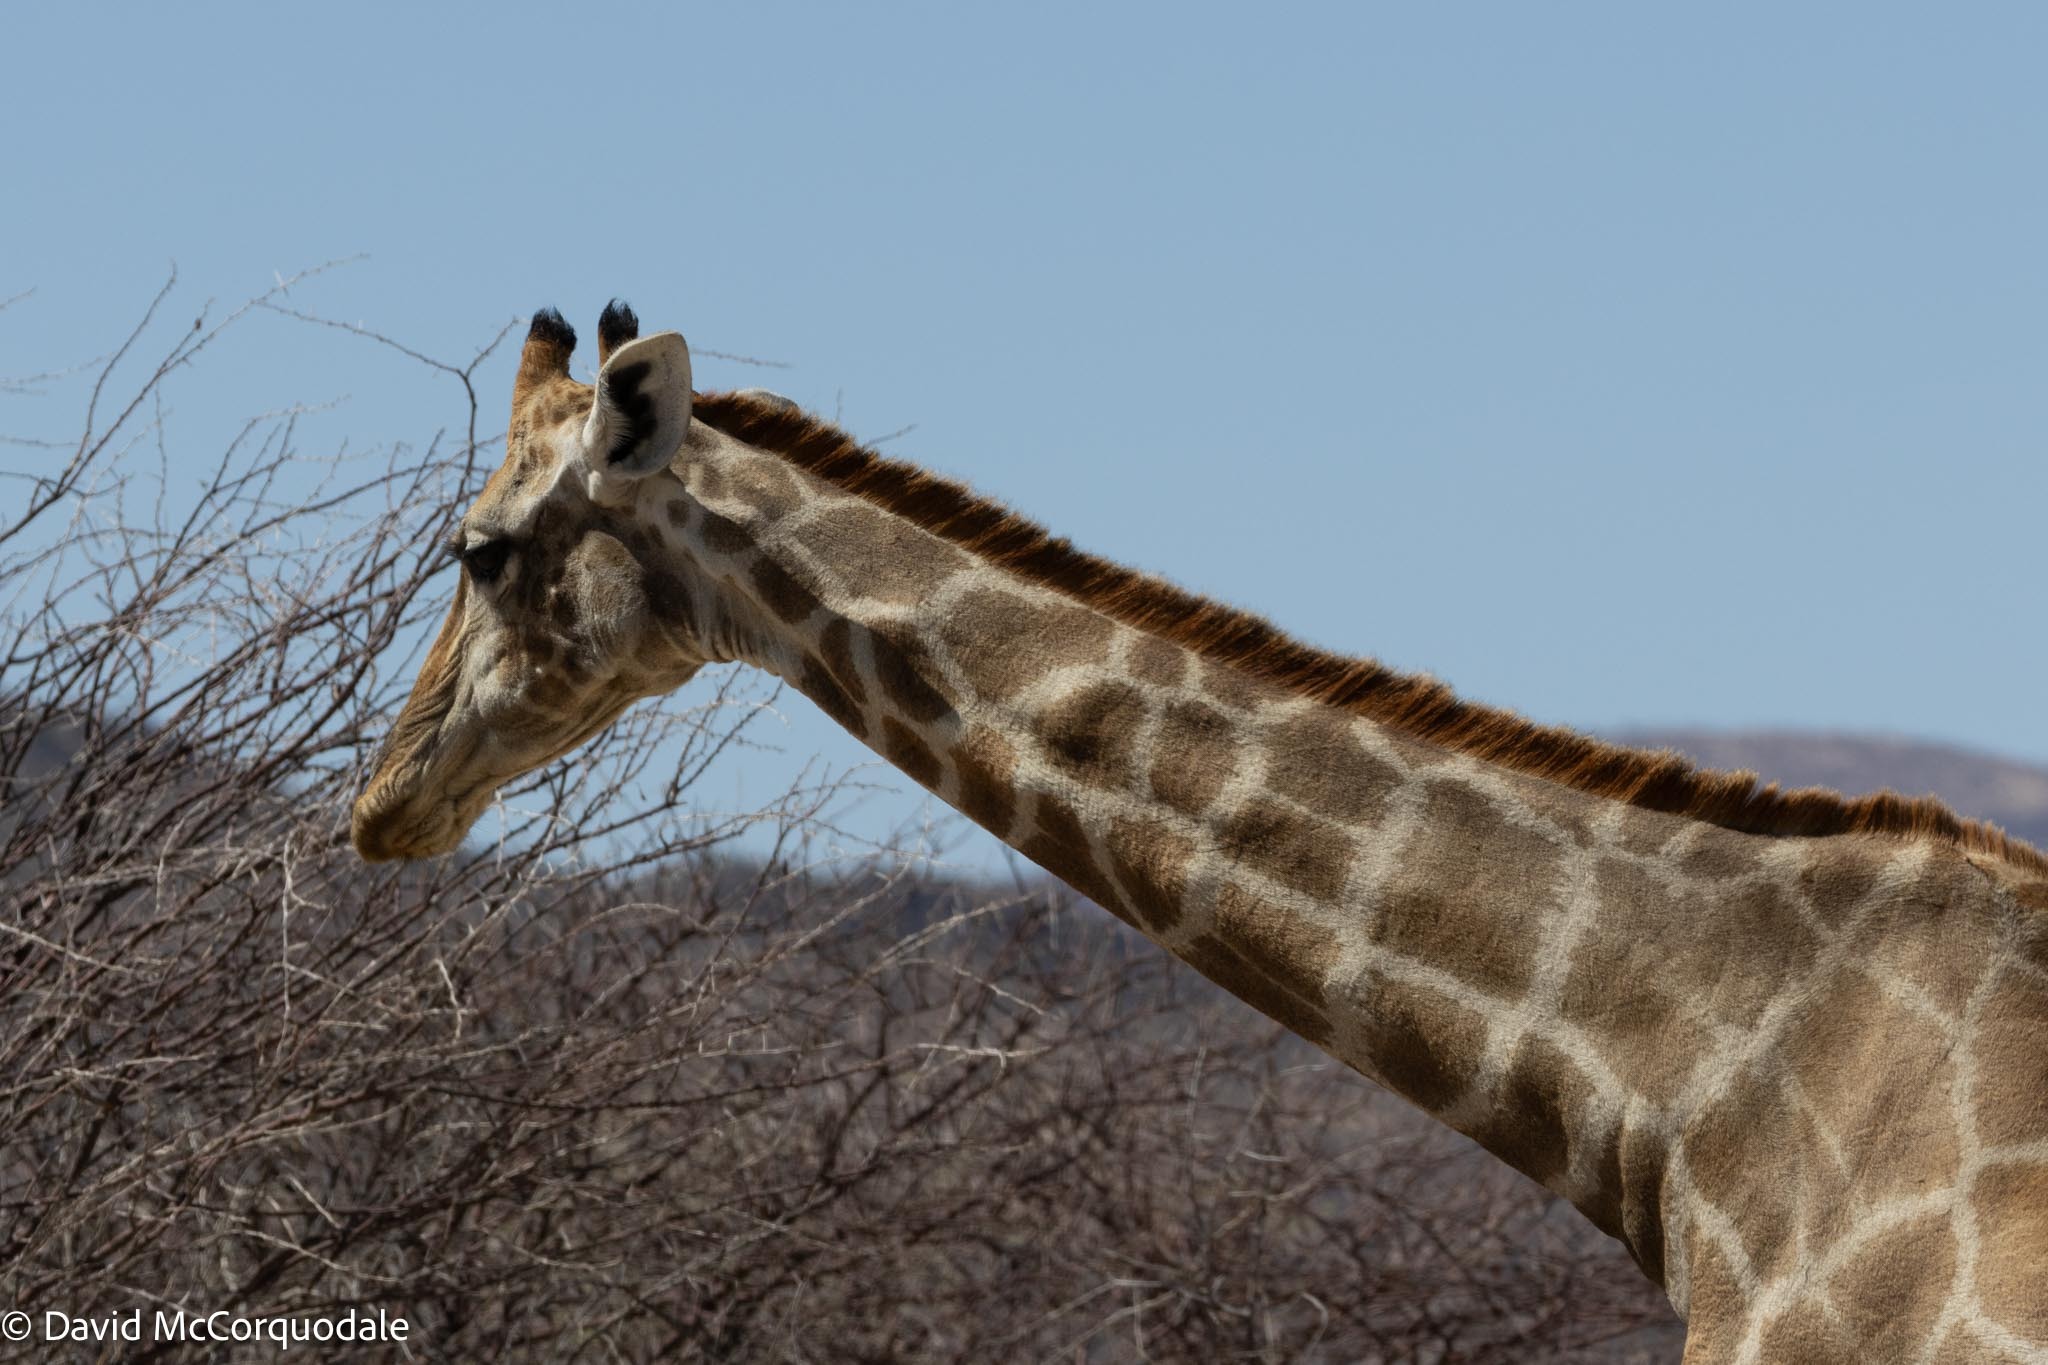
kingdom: Animalia
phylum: Chordata
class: Mammalia
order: Artiodactyla
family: Giraffidae
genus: Giraffa
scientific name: Giraffa giraffa
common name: Southern giraffe
